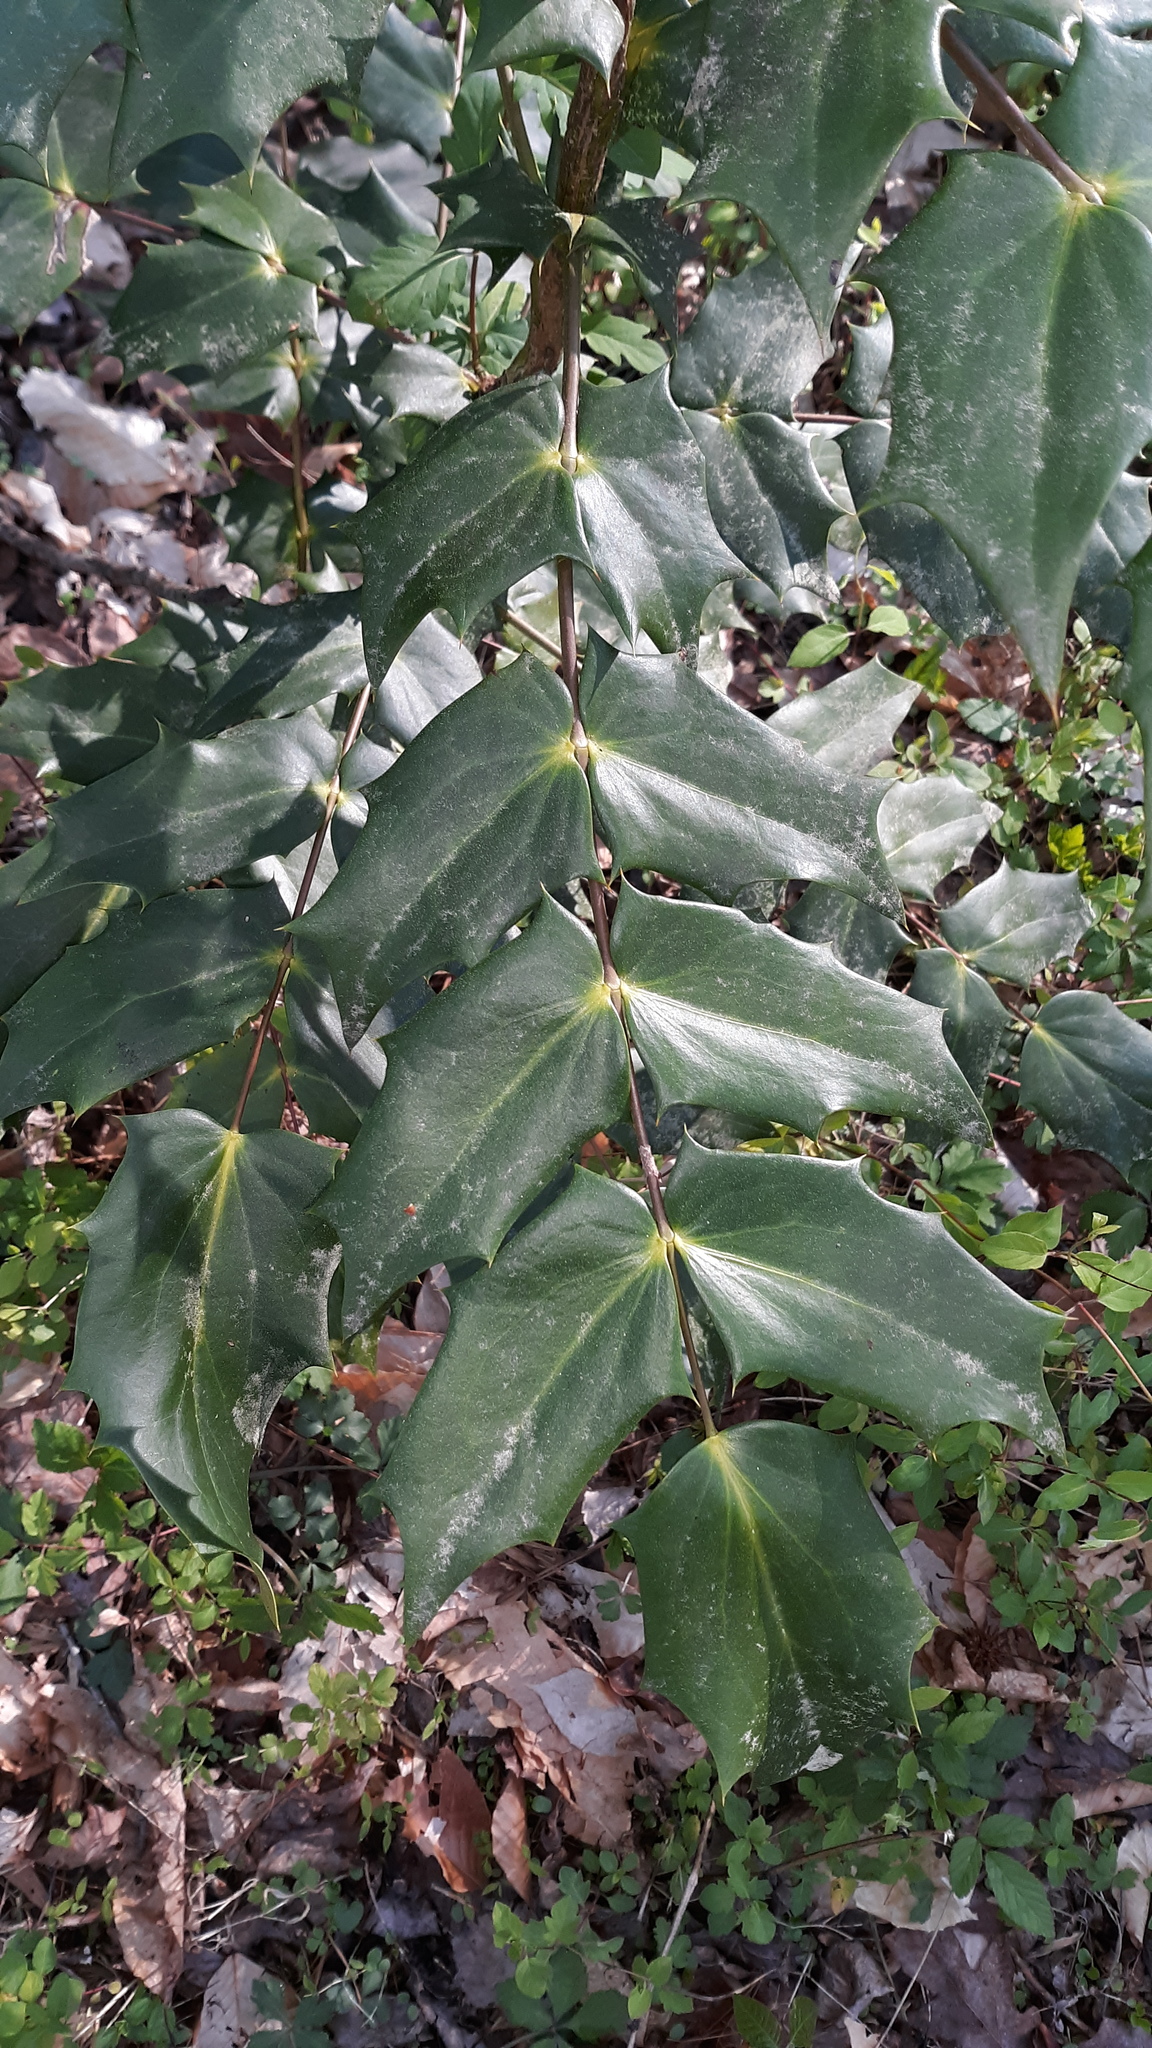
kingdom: Plantae
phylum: Tracheophyta
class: Magnoliopsida
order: Ranunculales
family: Berberidaceae
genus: Mahonia
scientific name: Mahonia bealei
